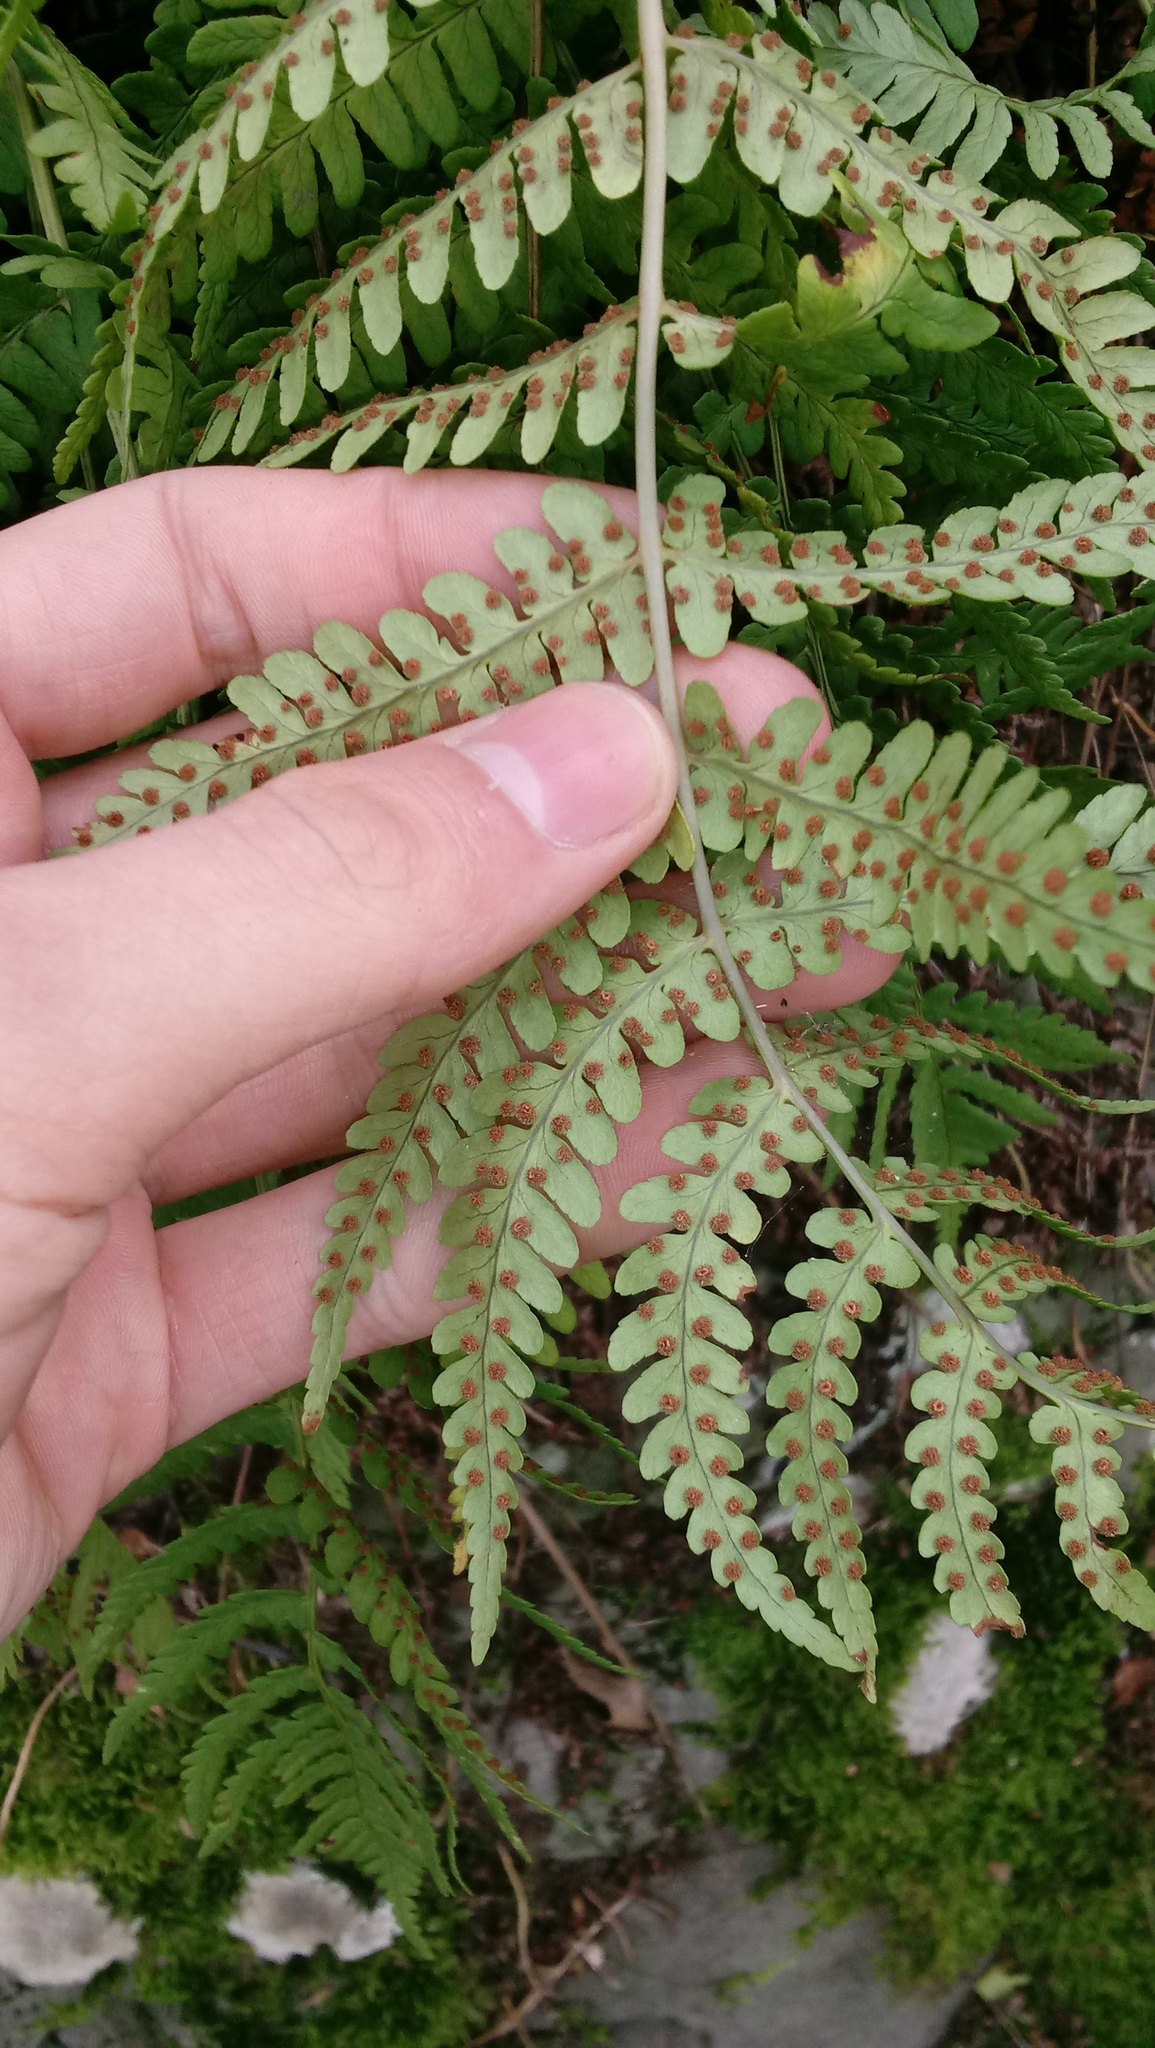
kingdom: Plantae
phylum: Tracheophyta
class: Polypodiopsida
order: Polypodiales
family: Dryopteridaceae
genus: Dryopteris
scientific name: Dryopteris marginalis
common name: Marginal wood fern
